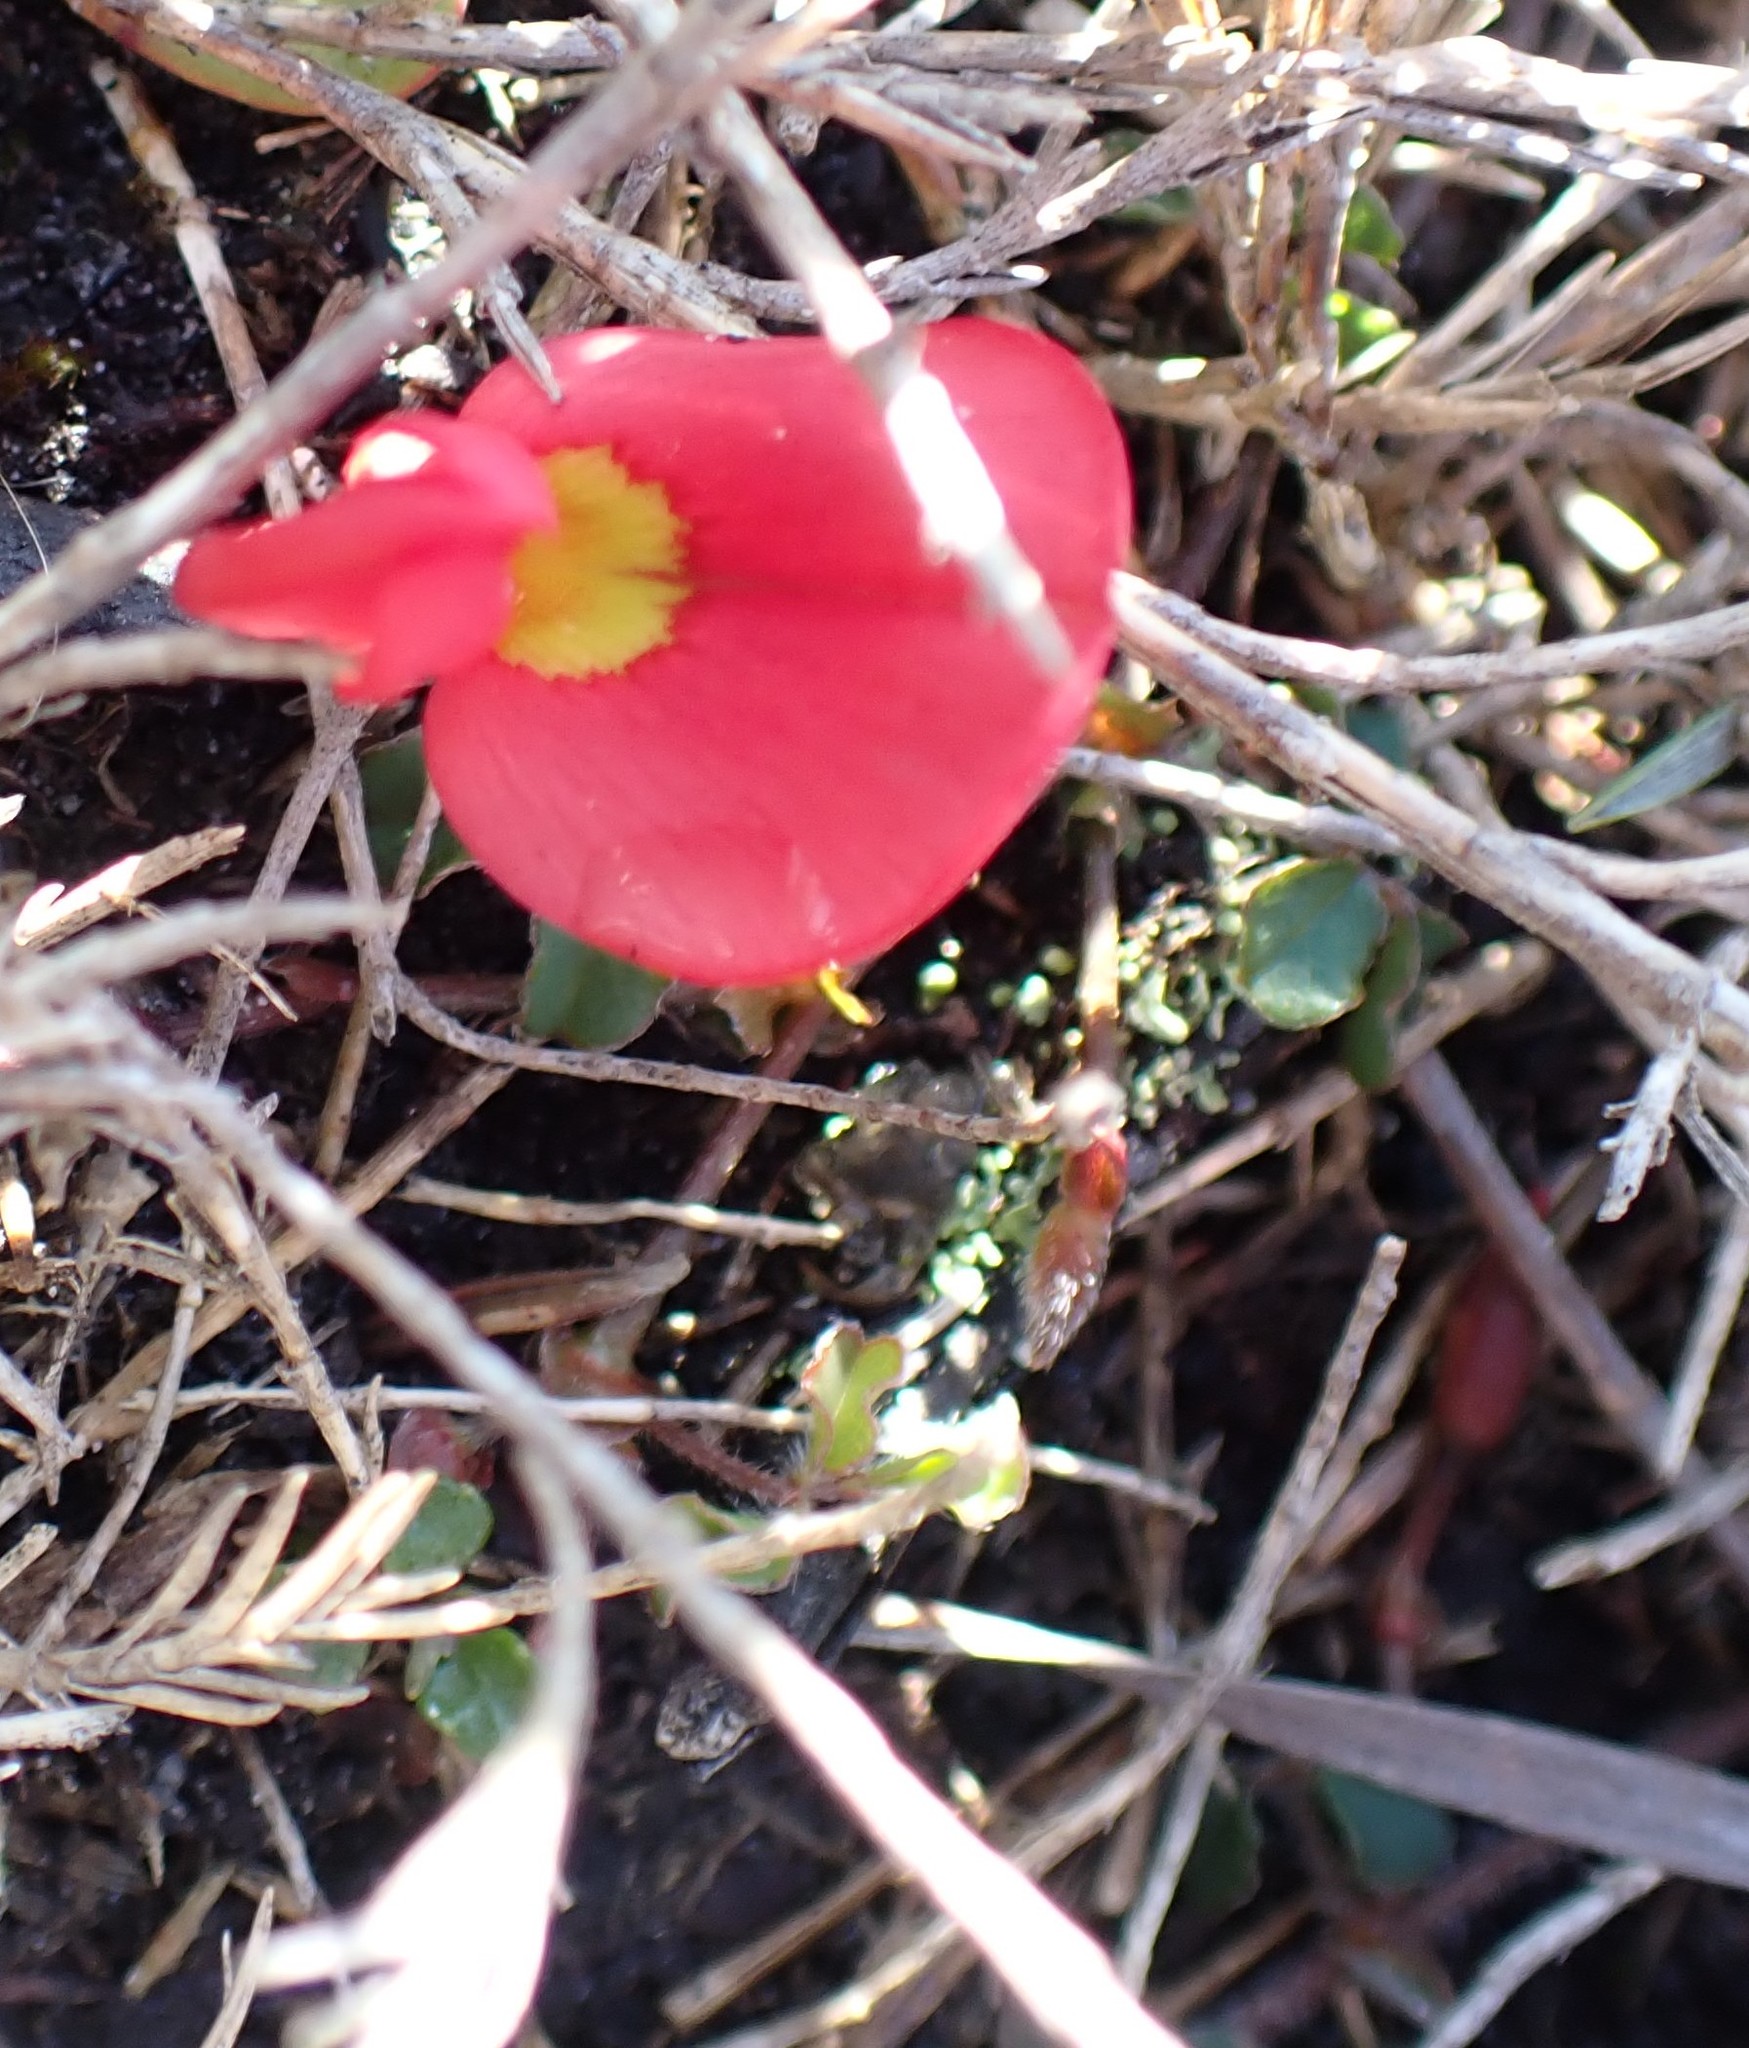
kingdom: Plantae
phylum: Tracheophyta
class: Magnoliopsida
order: Fabales
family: Fabaceae
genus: Kennedia
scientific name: Kennedia prostrata
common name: Running-postman
